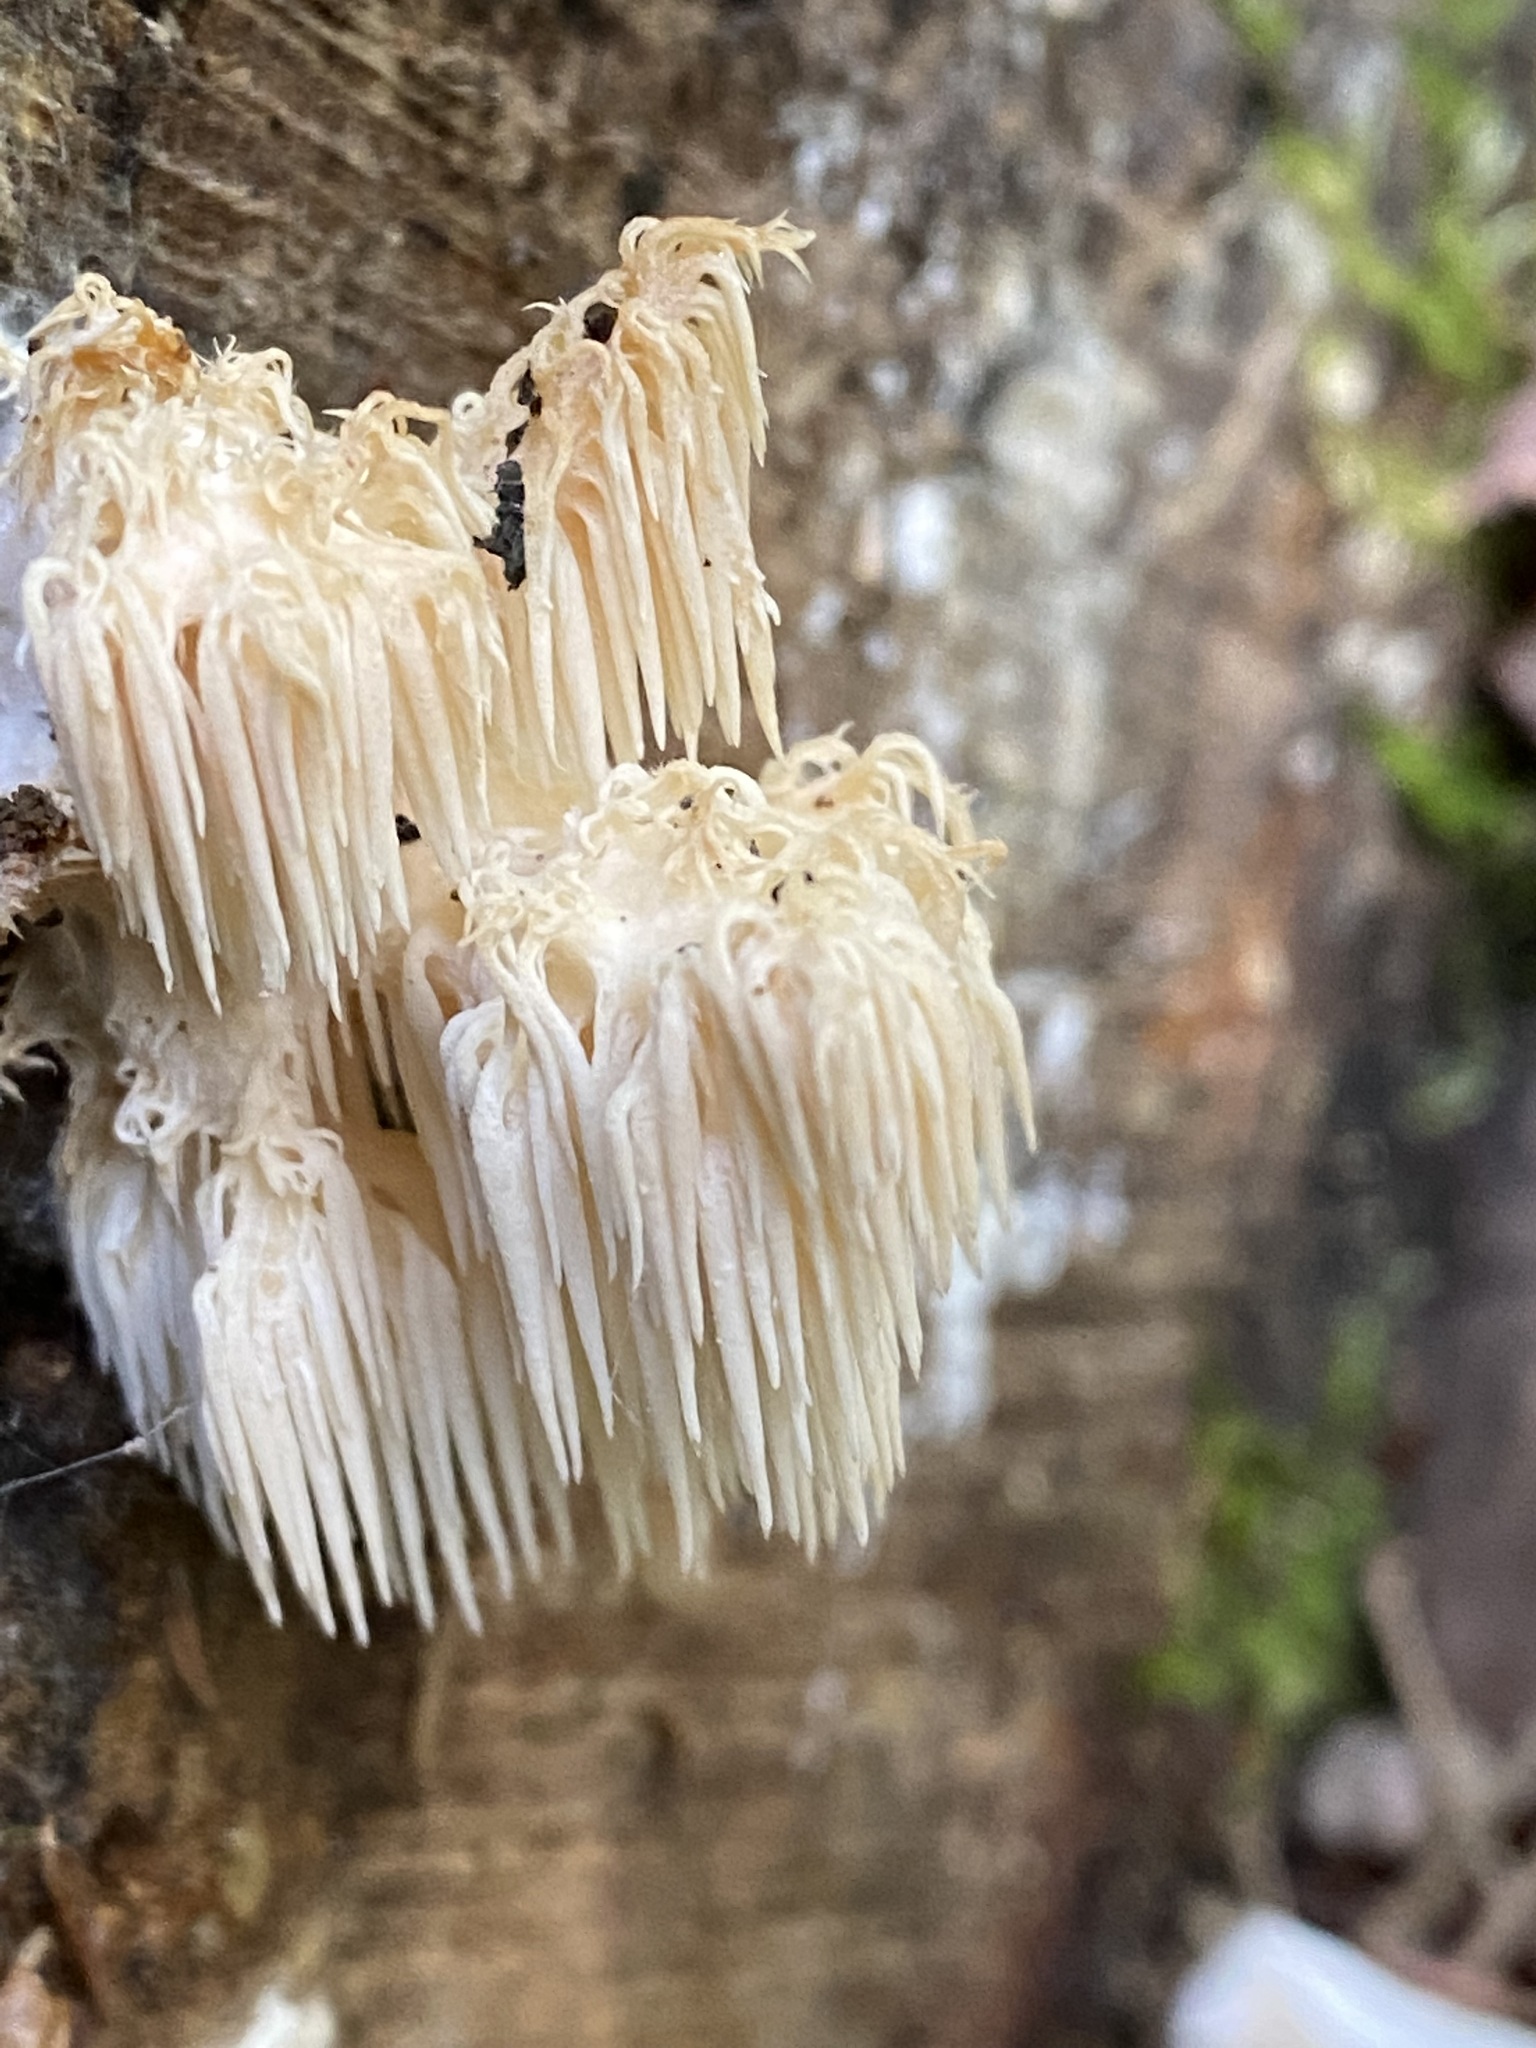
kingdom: Fungi
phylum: Basidiomycota
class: Agaricomycetes
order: Russulales
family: Hericiaceae
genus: Hericium
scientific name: Hericium americanum
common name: Bear's head tooth
